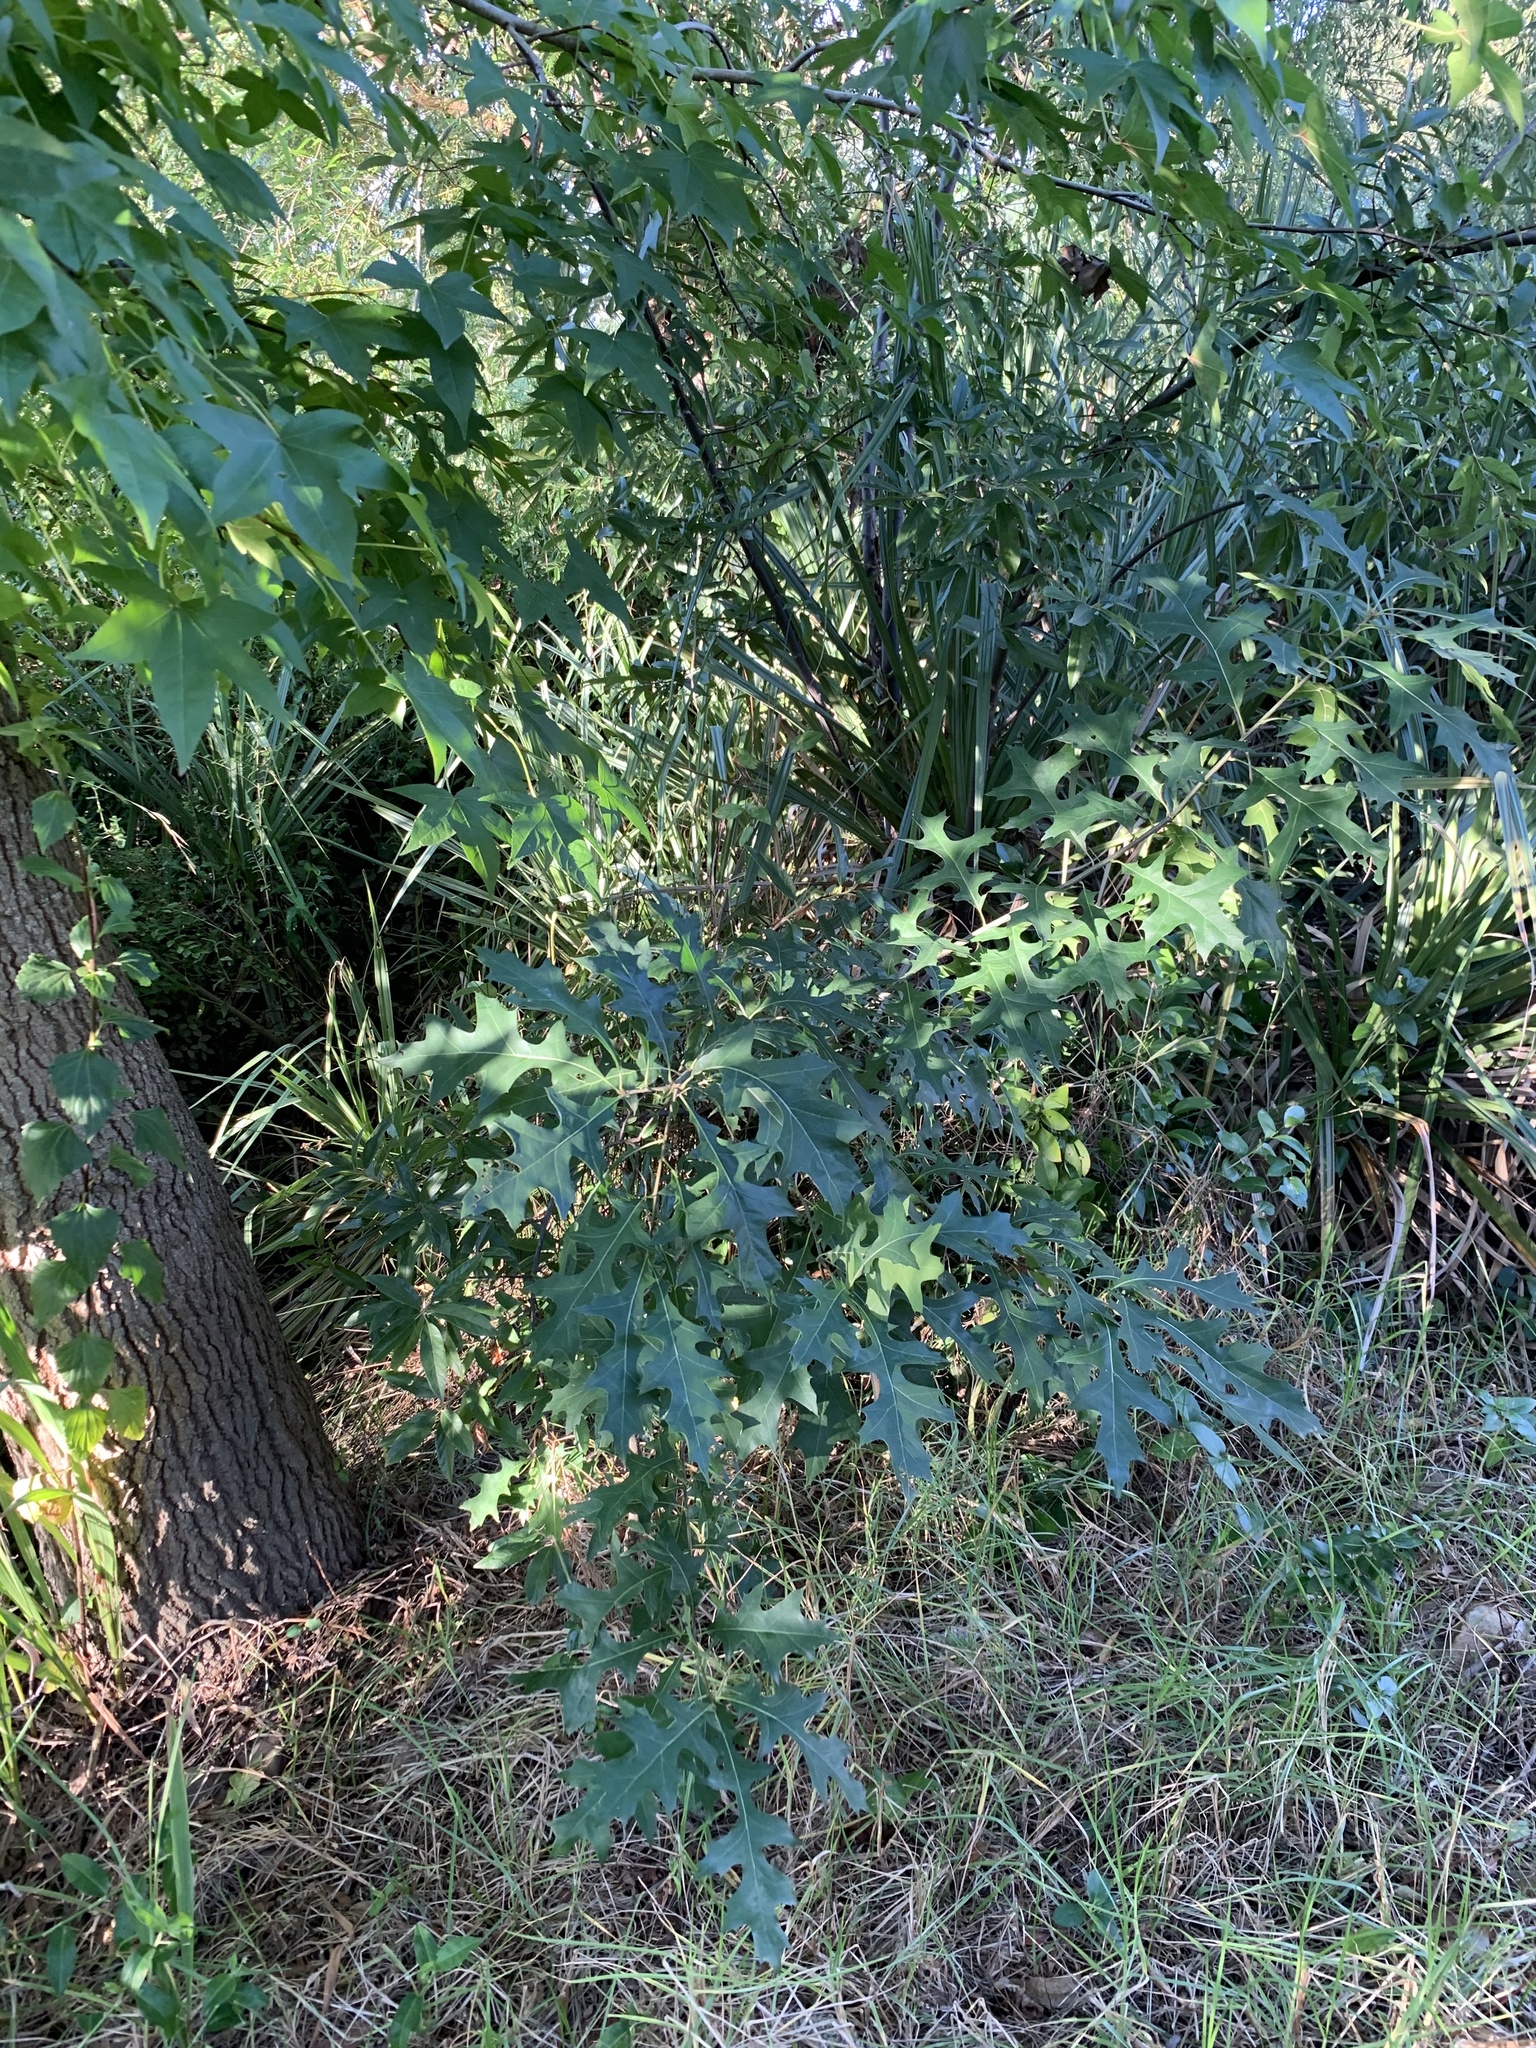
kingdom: Plantae
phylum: Tracheophyta
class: Magnoliopsida
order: Fagales
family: Fagaceae
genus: Quercus
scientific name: Quercus palustris
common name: Pin oak
